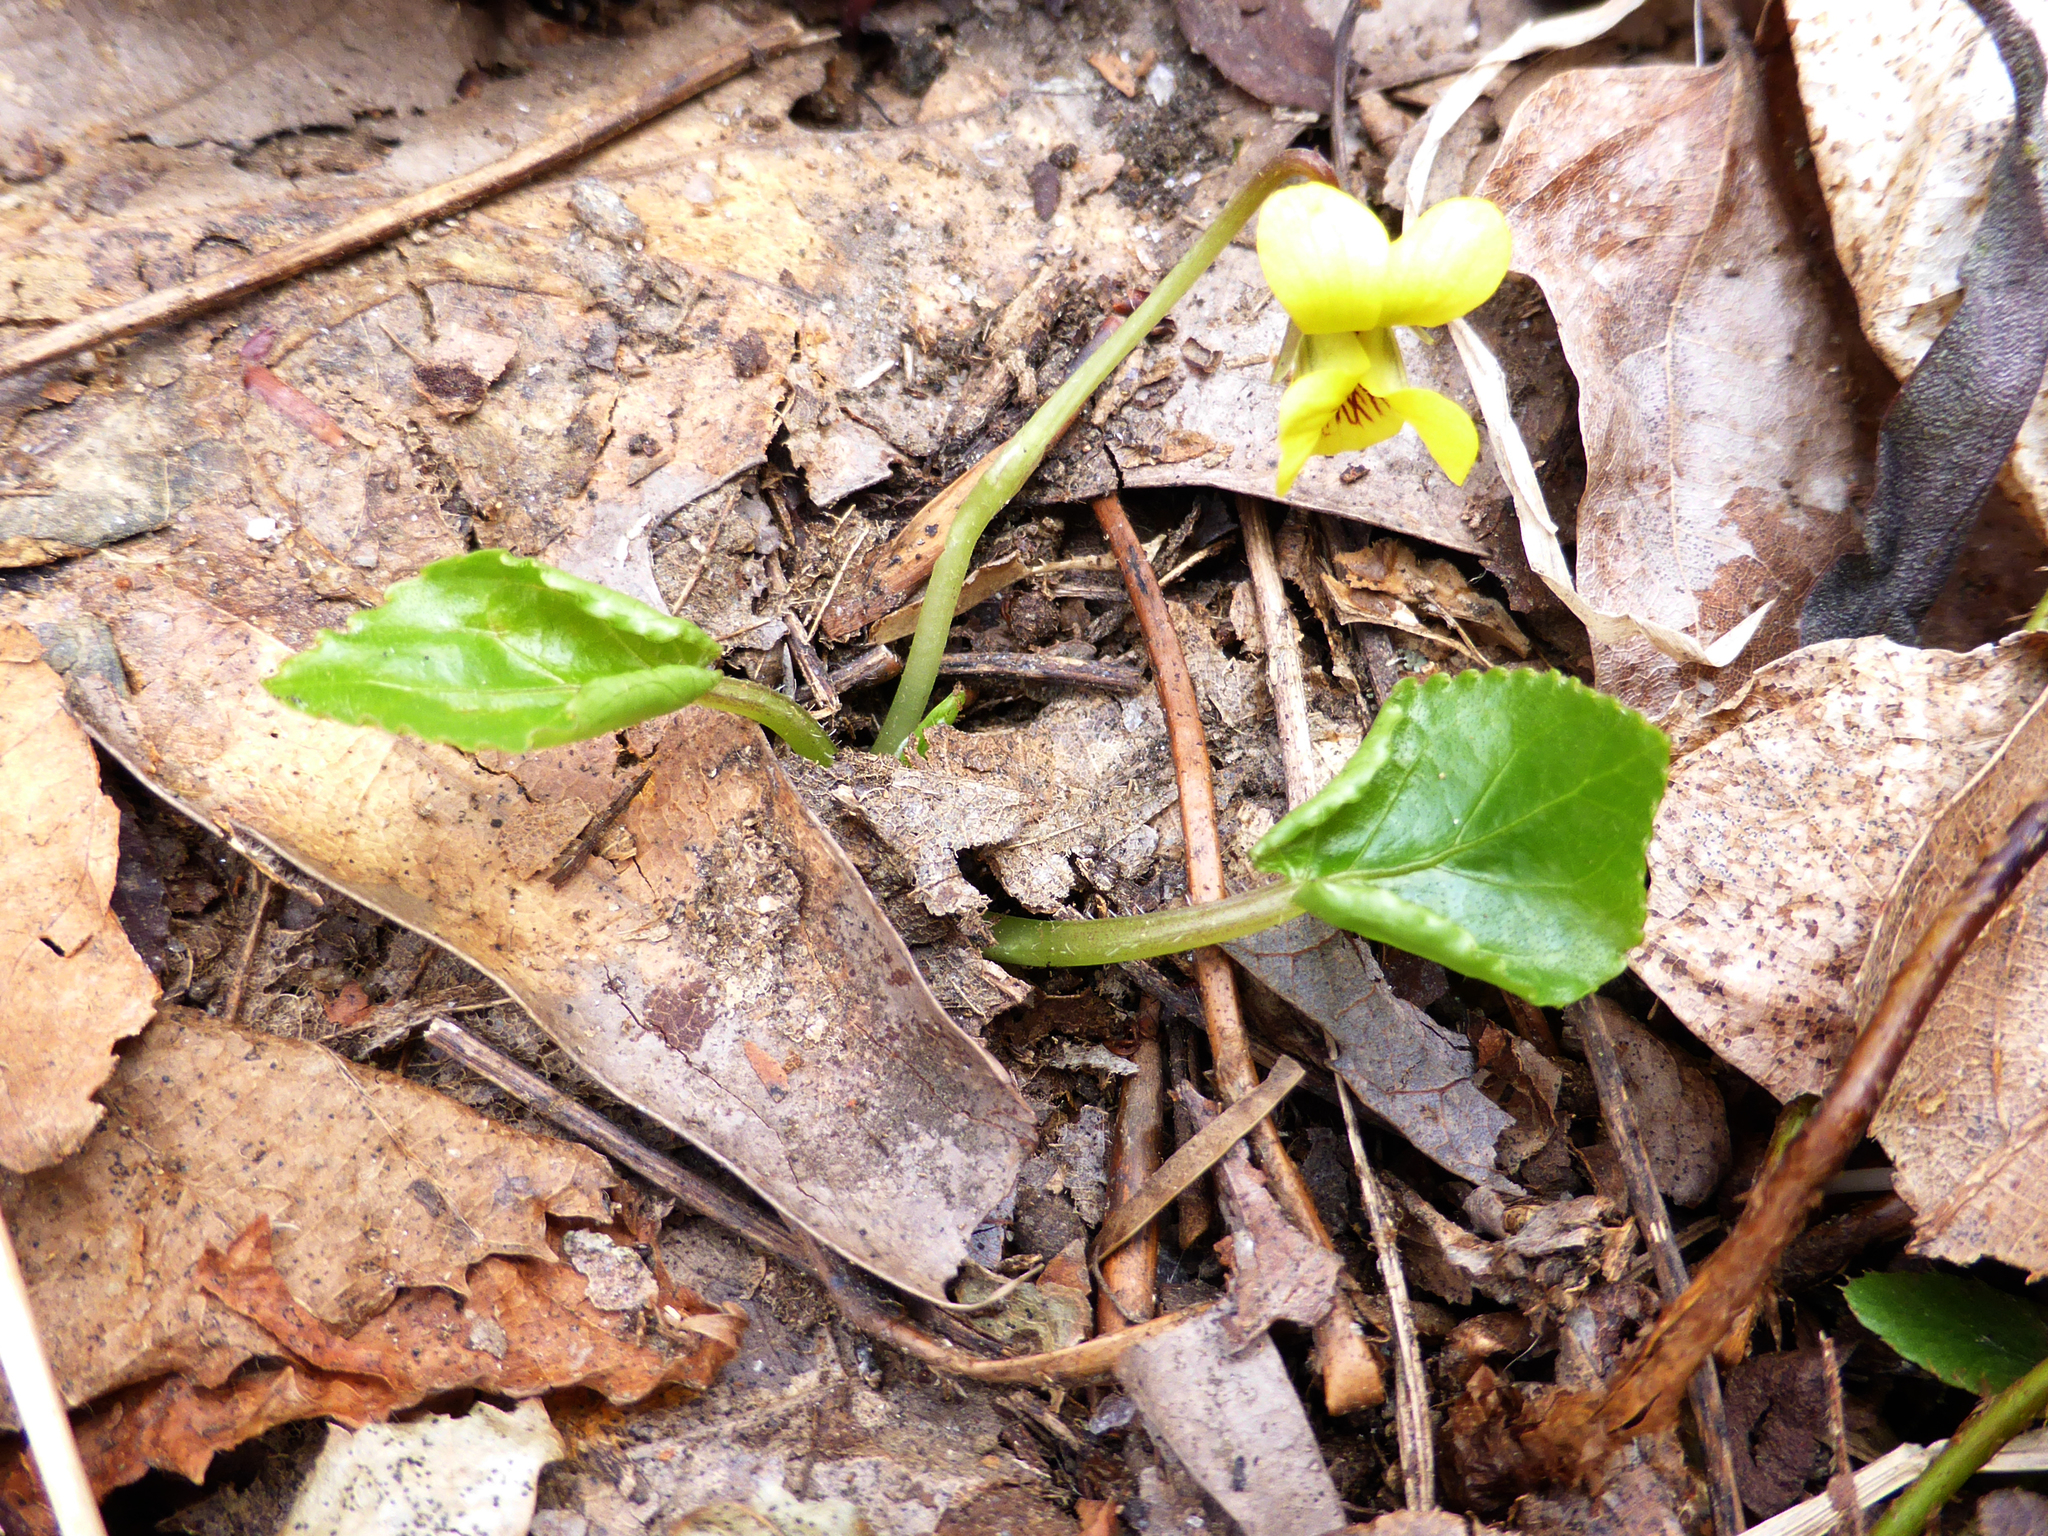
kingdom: Plantae
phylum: Tracheophyta
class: Magnoliopsida
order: Malpighiales
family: Violaceae
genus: Viola
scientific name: Viola rotundifolia
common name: Early yellow violet
